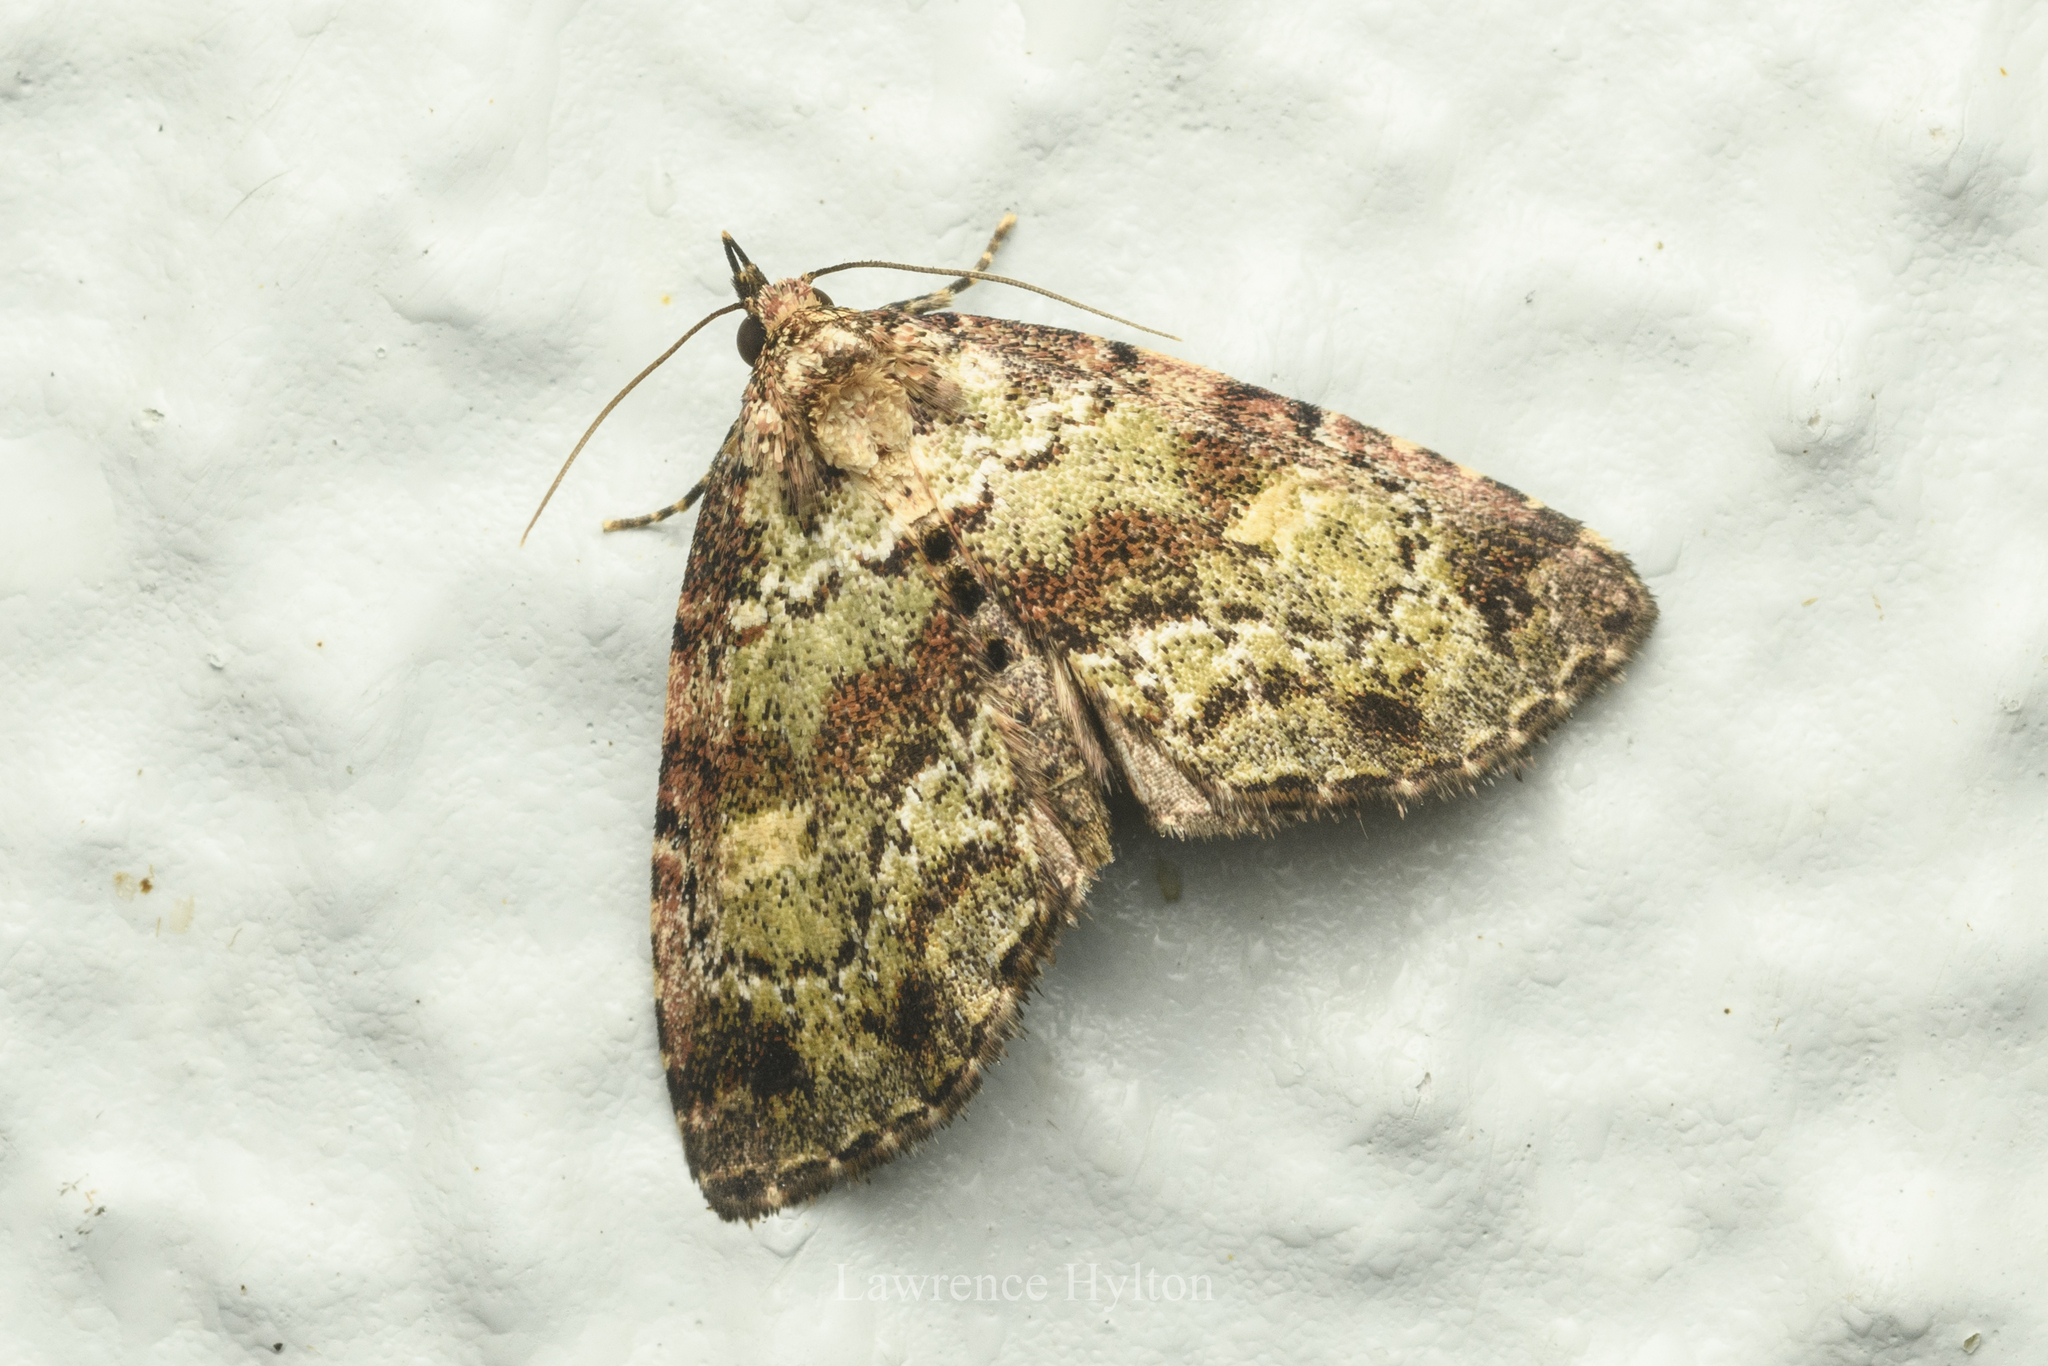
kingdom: Animalia
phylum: Arthropoda
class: Insecta
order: Lepidoptera
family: Noctuidae
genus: Lithacodia
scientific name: Lithacodia crotopha
